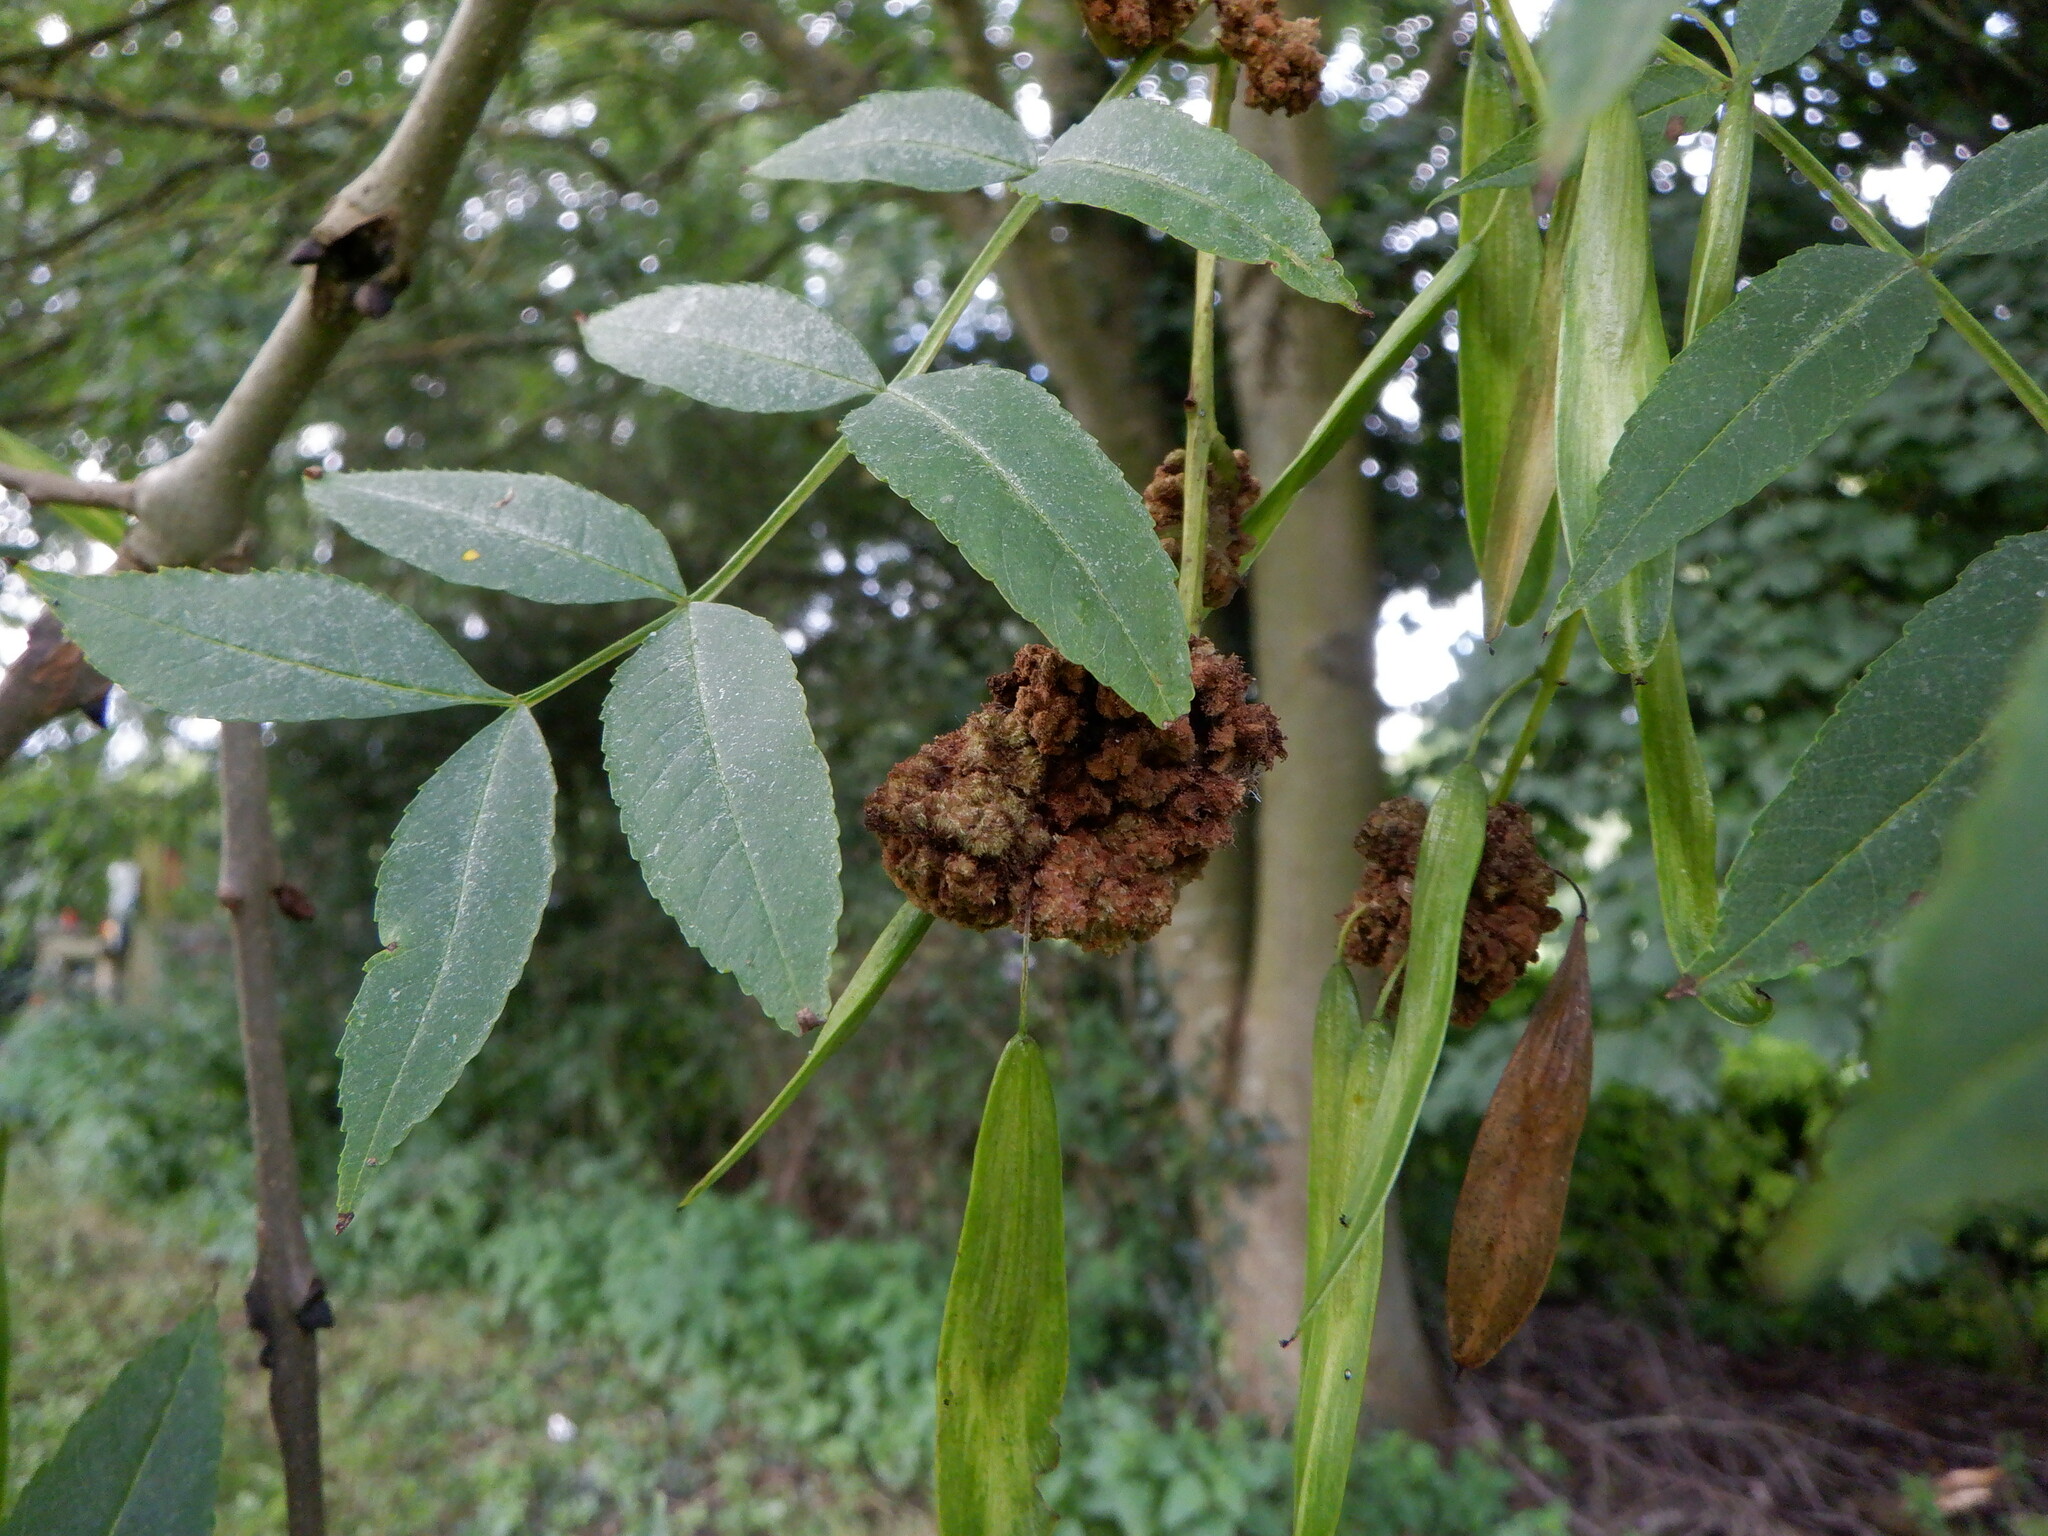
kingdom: Animalia
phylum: Arthropoda
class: Arachnida
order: Trombidiformes
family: Eriophyidae
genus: Aceria
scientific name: Aceria fraxinivora
